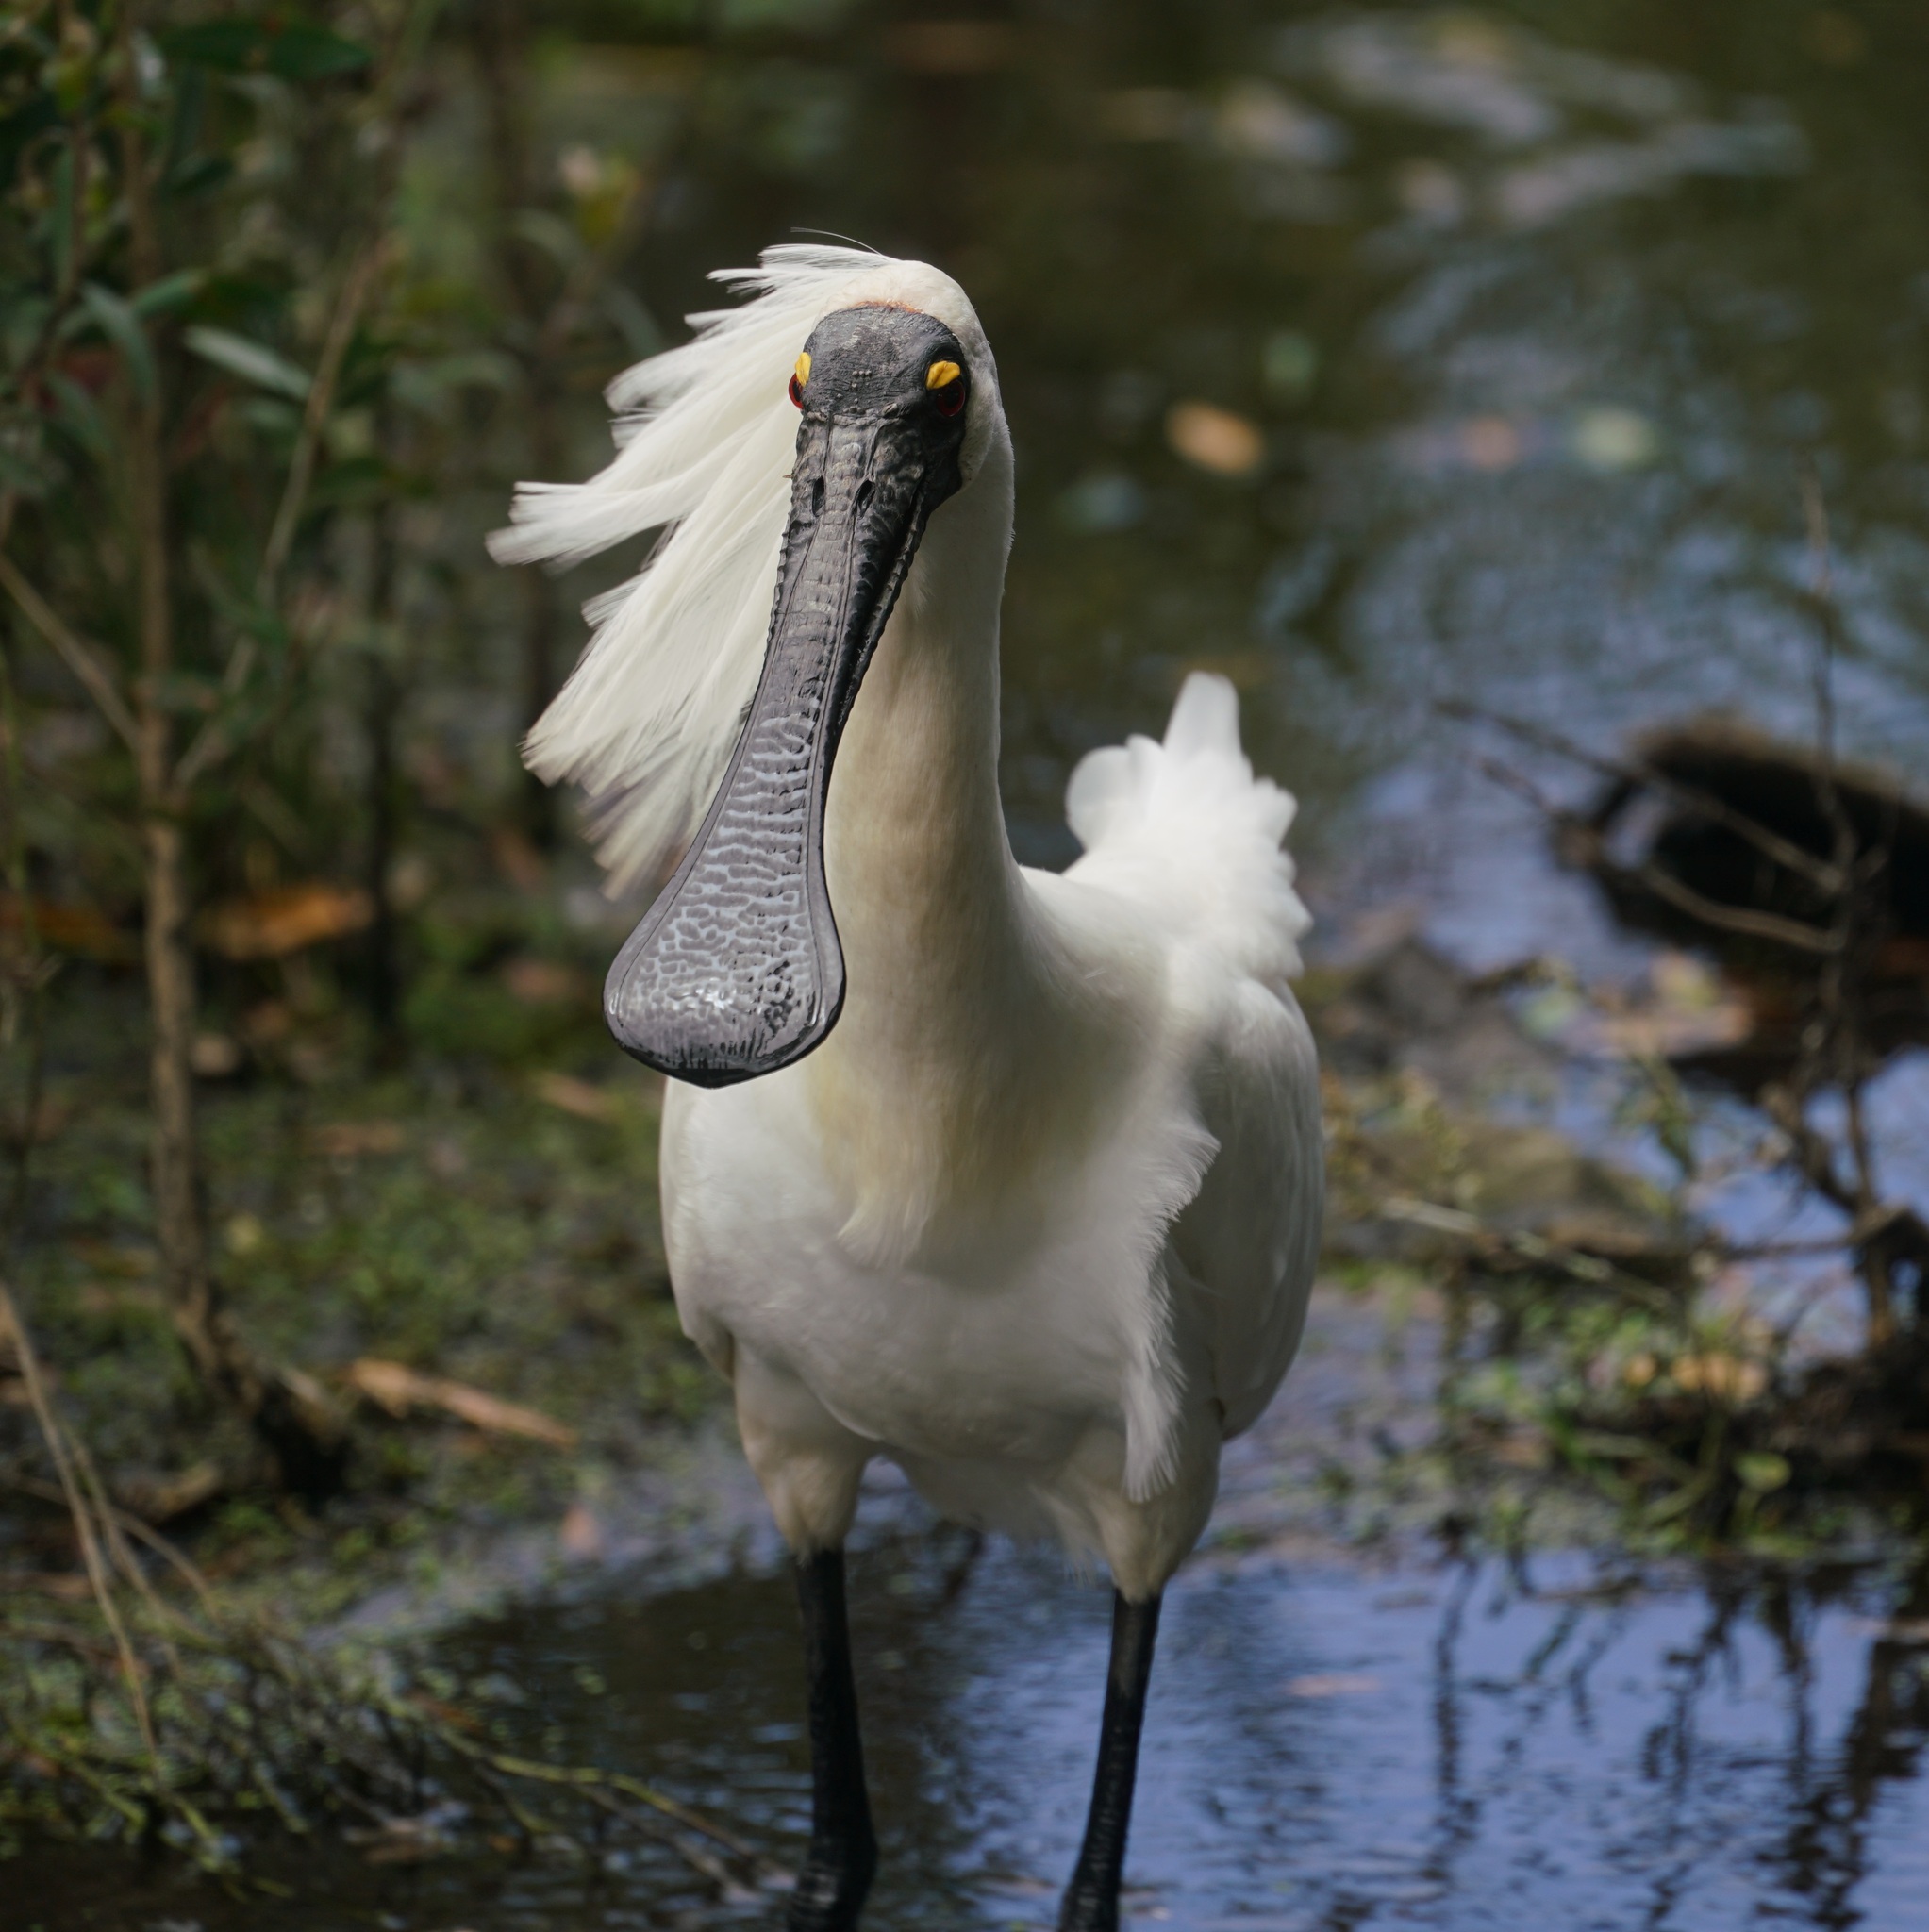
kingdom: Animalia
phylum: Chordata
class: Aves
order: Pelecaniformes
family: Threskiornithidae
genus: Platalea
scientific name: Platalea regia
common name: Royal spoonbill
